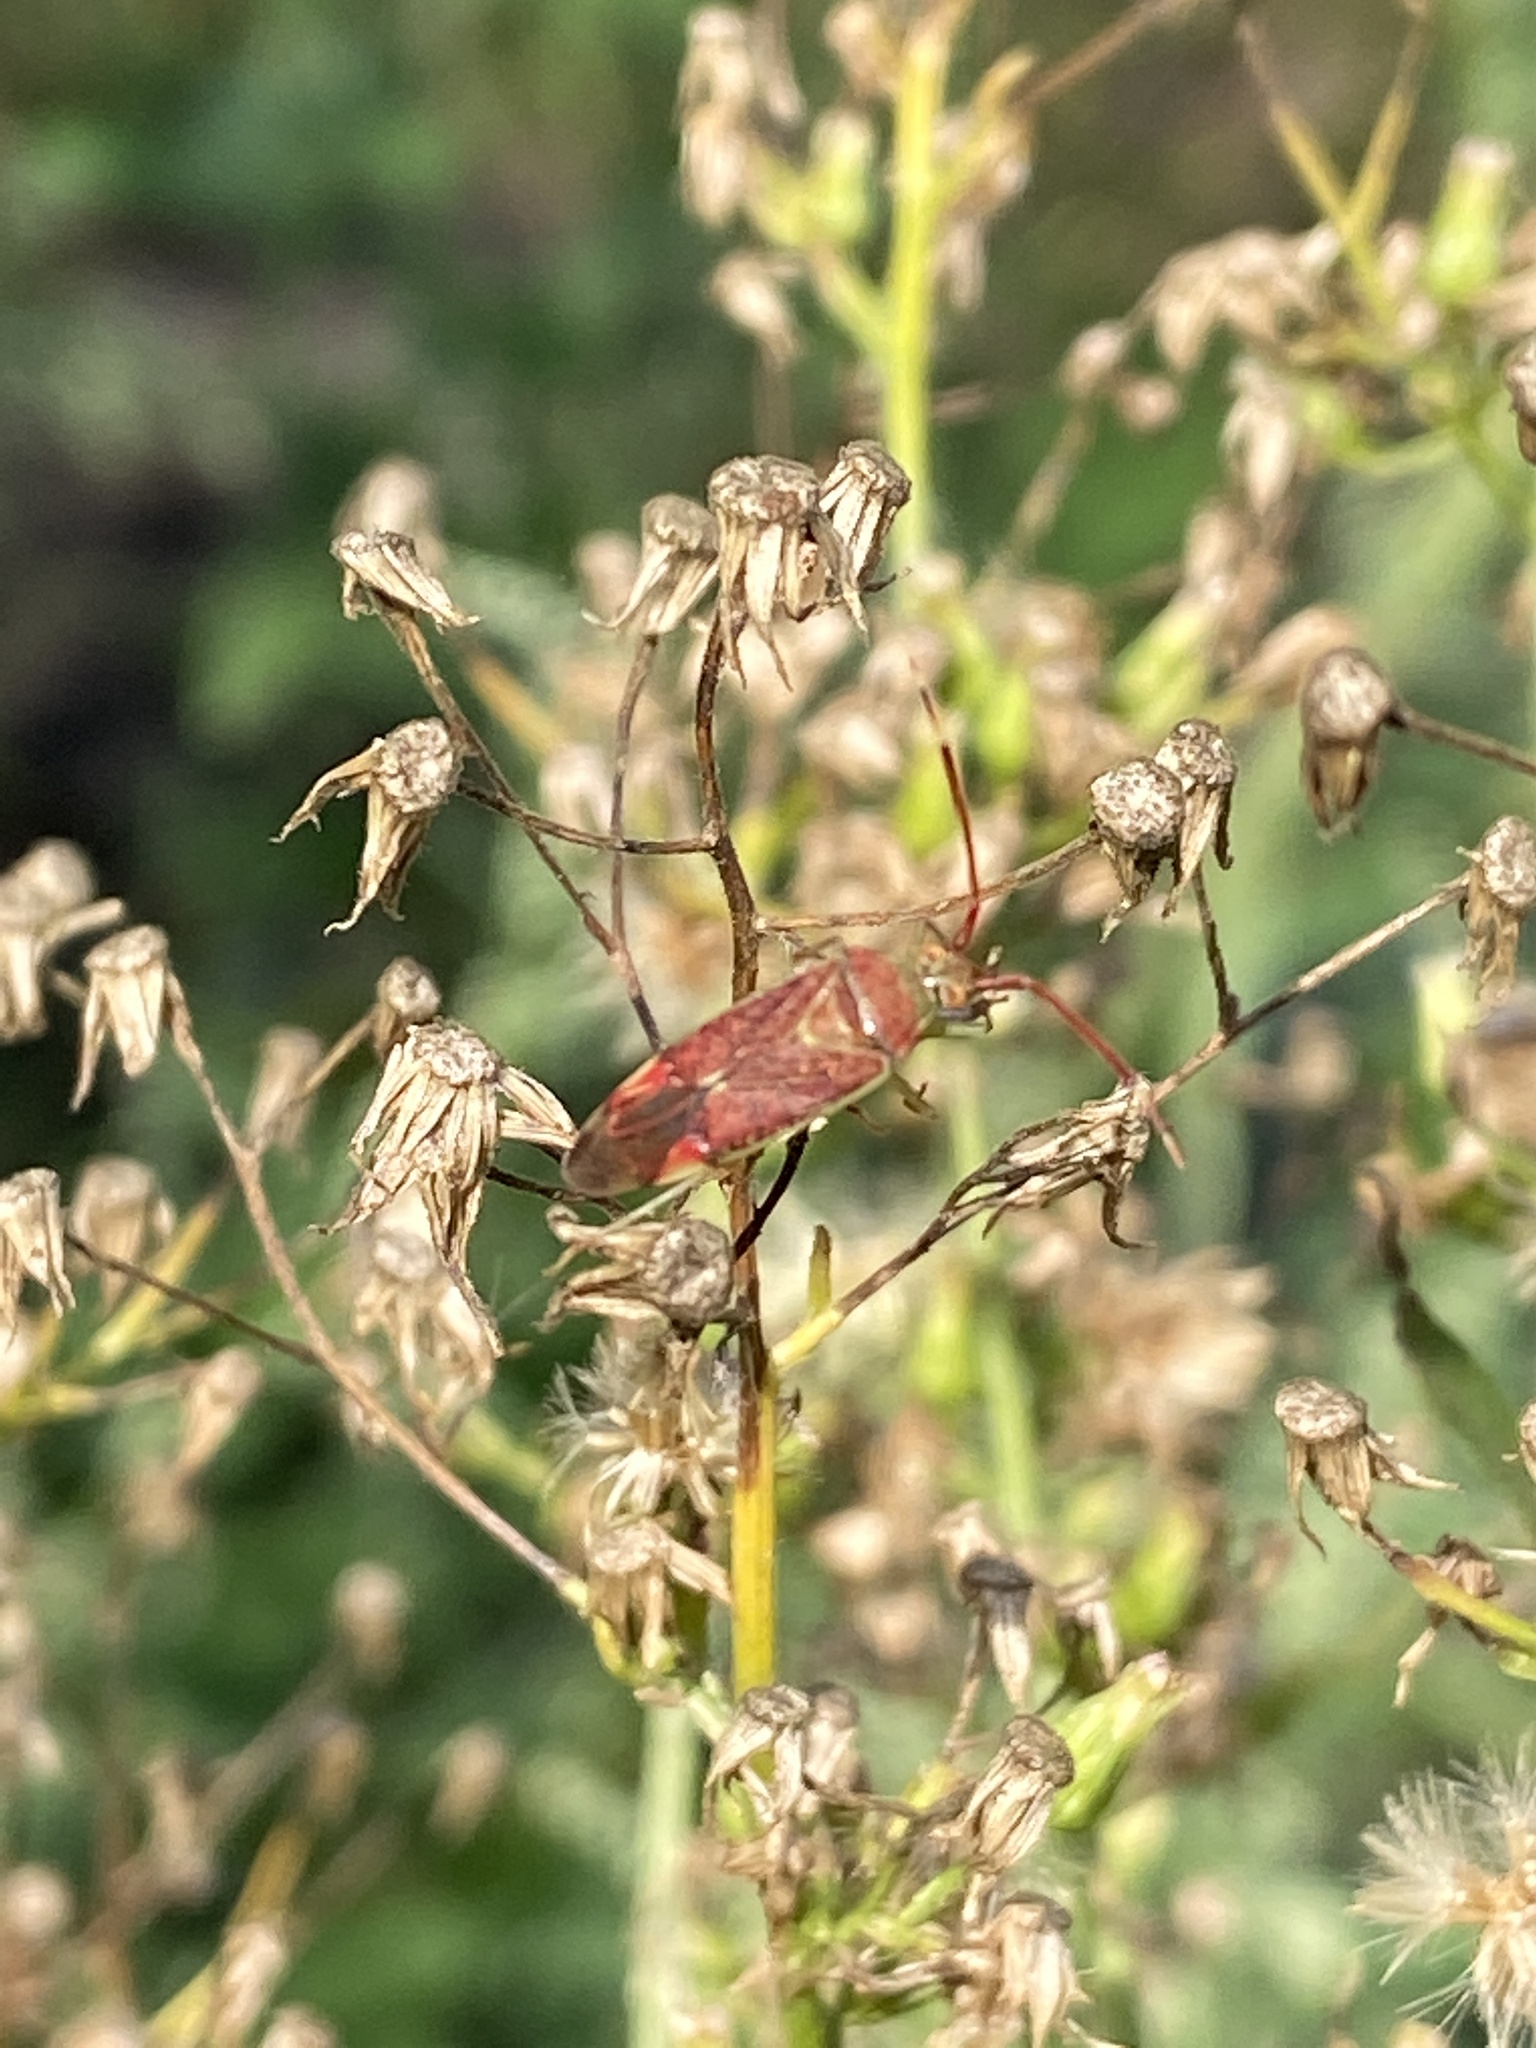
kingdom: Animalia
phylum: Arthropoda
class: Insecta
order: Hemiptera
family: Miridae
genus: Pantilius
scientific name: Pantilius tunicatus
